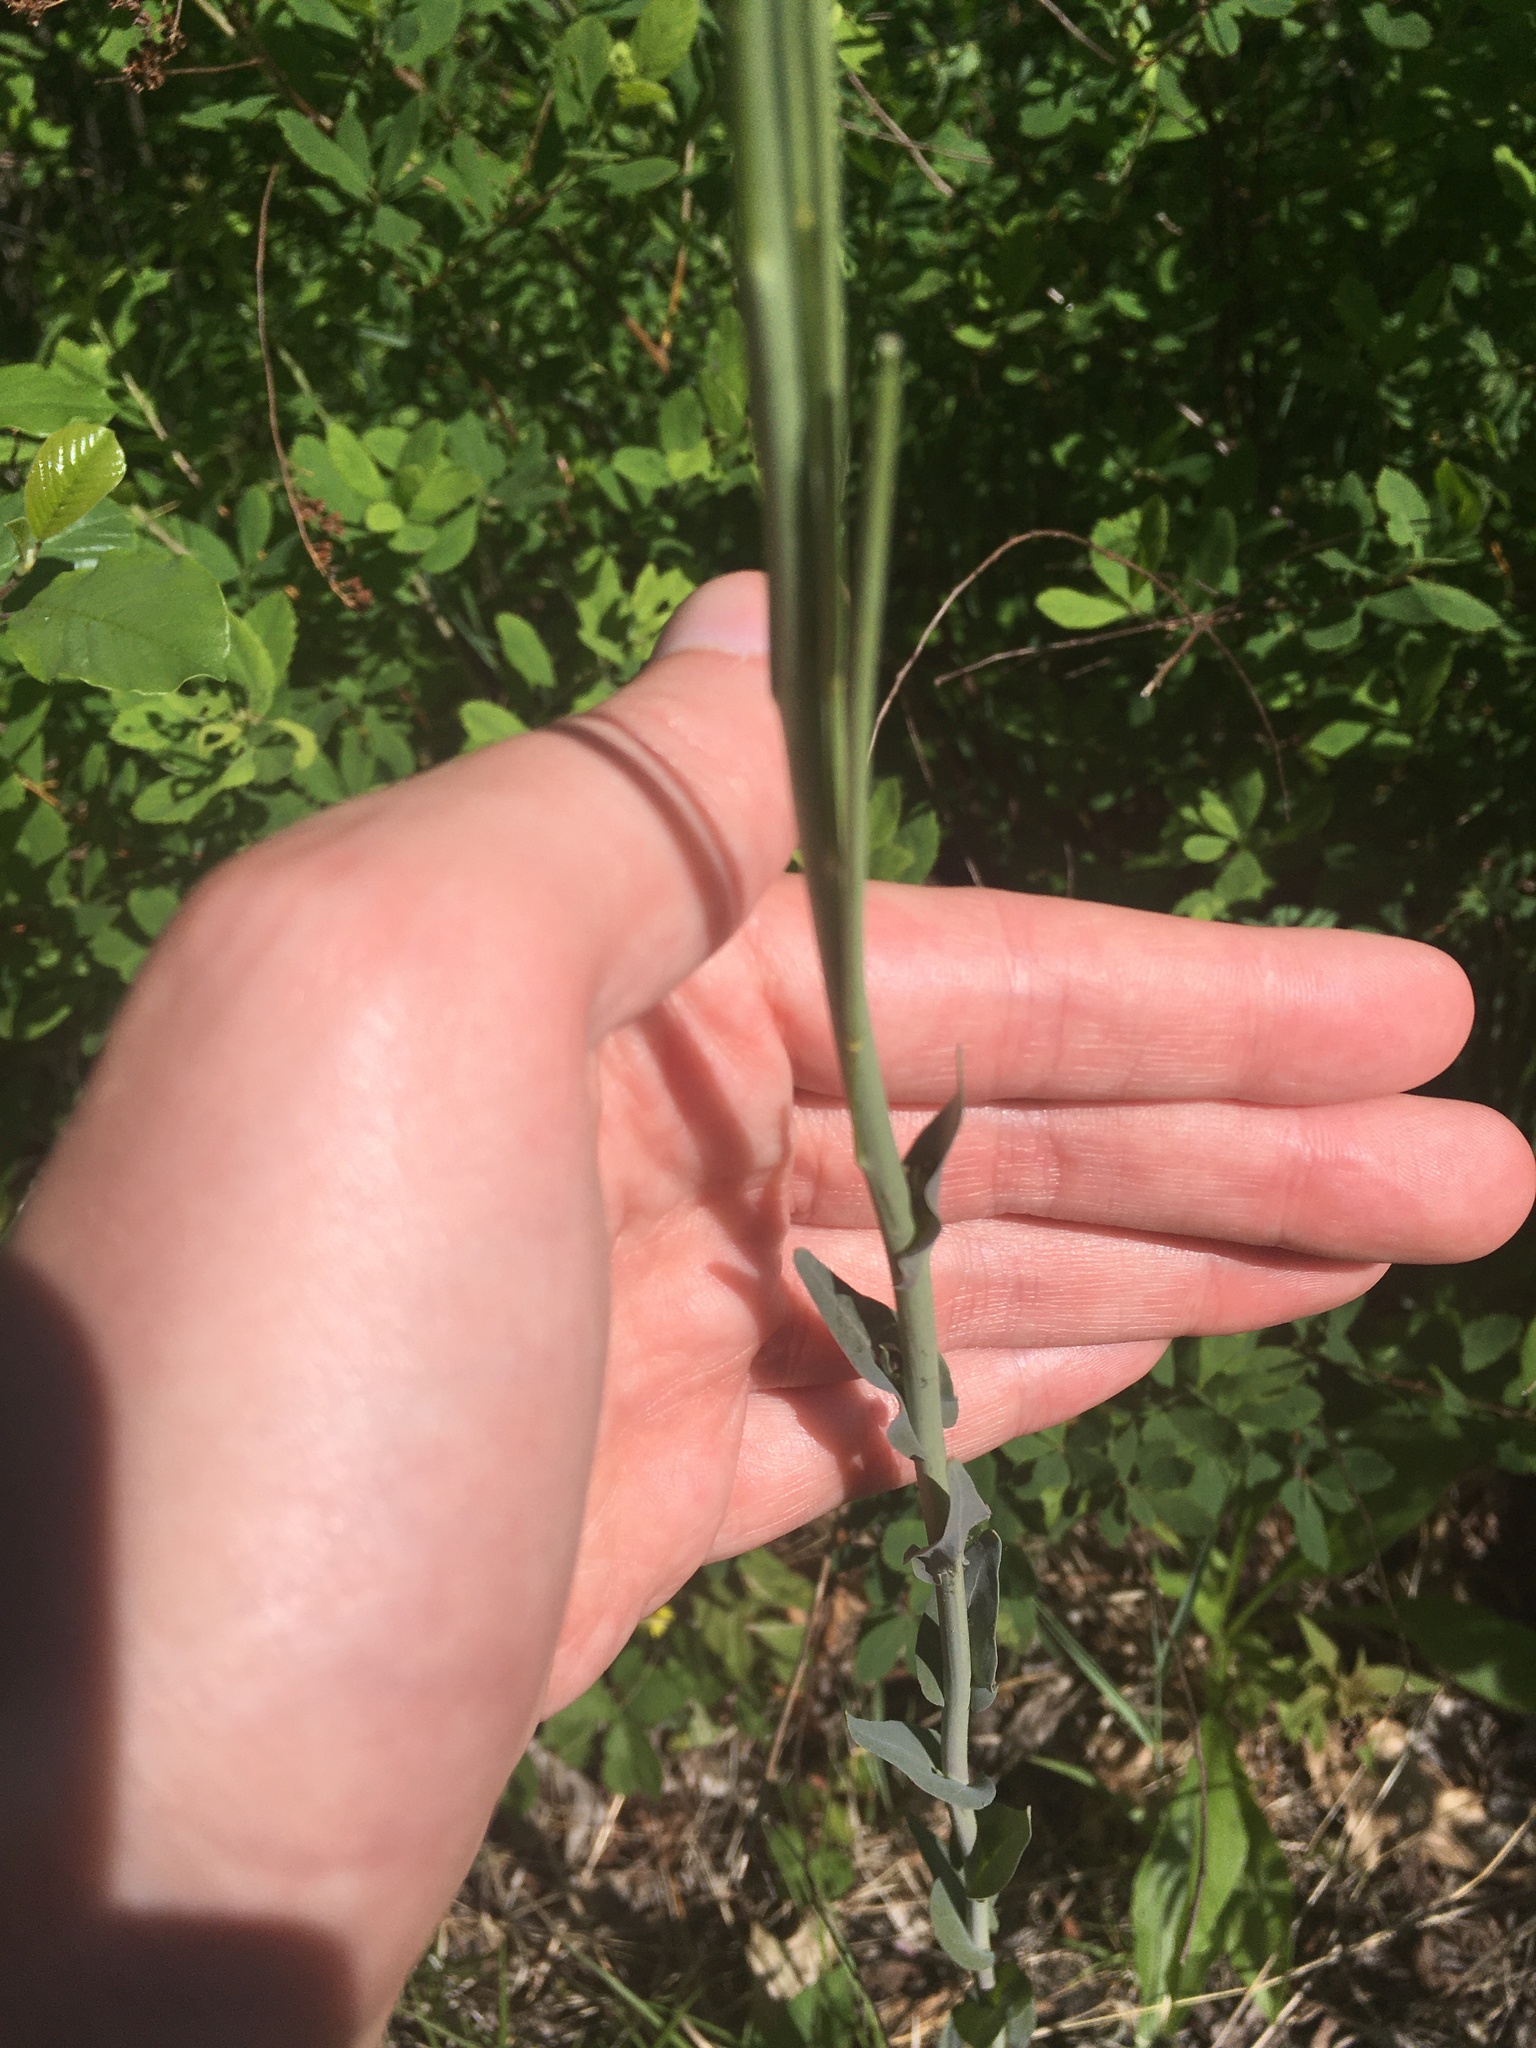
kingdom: Plantae
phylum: Tracheophyta
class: Magnoliopsida
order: Brassicales
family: Brassicaceae
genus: Turritis
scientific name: Turritis glabra
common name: Tower rockcress
